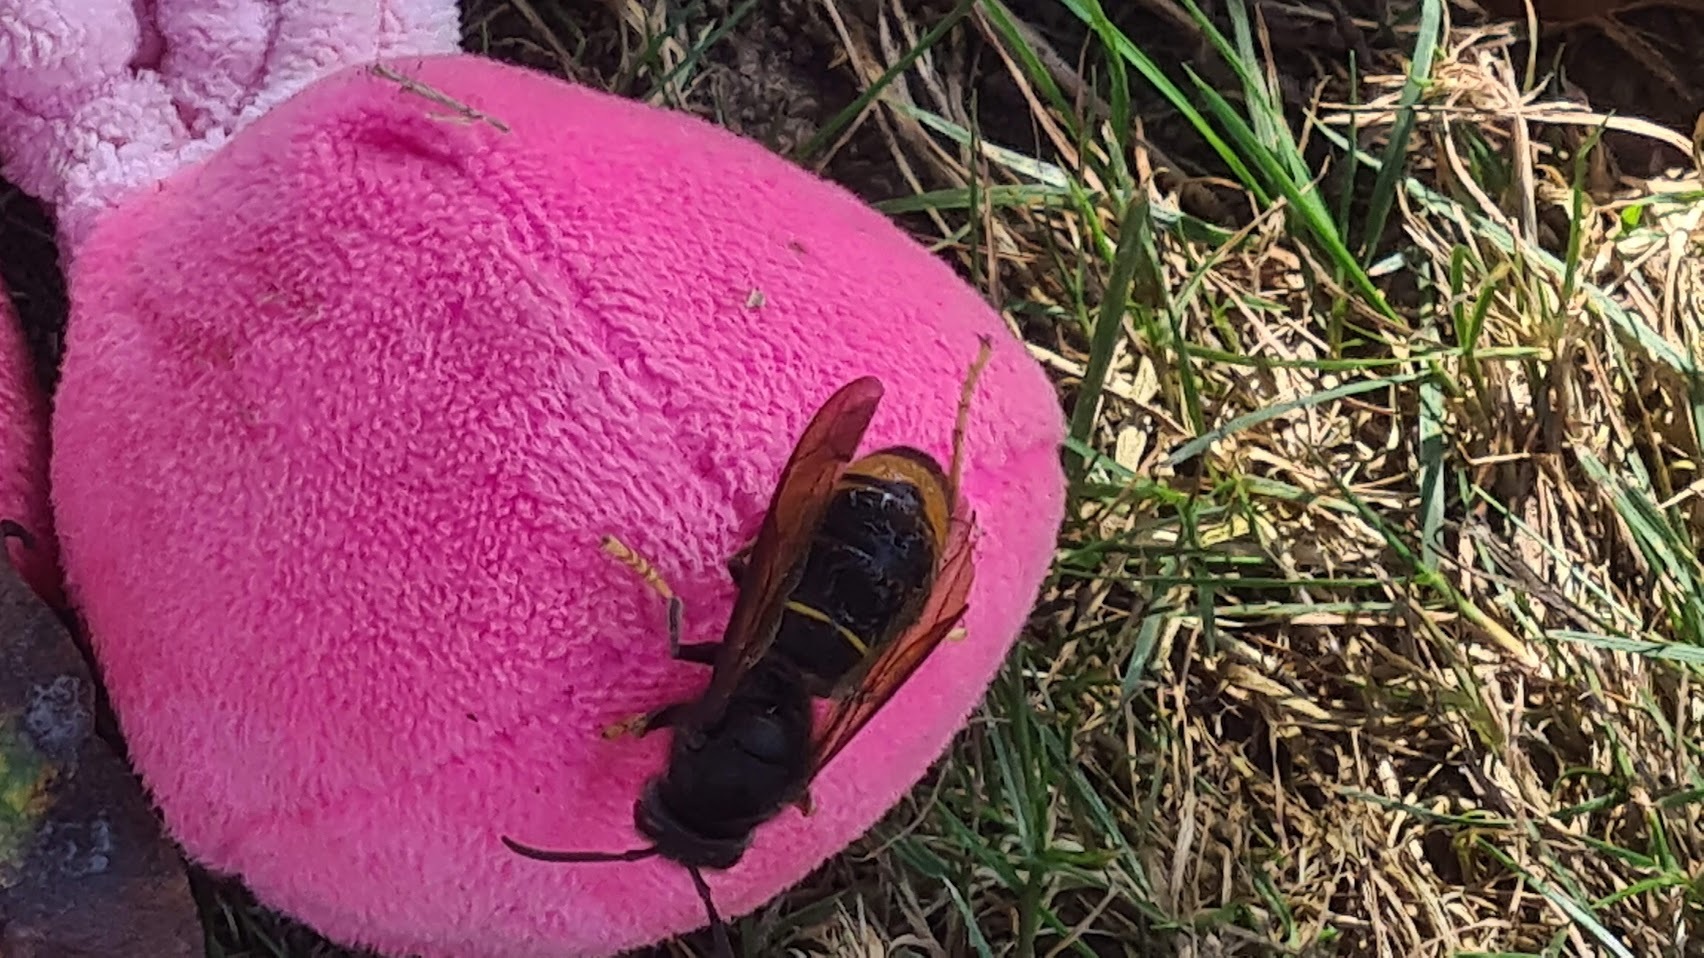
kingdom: Animalia
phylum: Arthropoda
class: Insecta
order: Hymenoptera
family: Vespidae
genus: Vespa
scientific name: Vespa velutina
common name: Asian hornet
